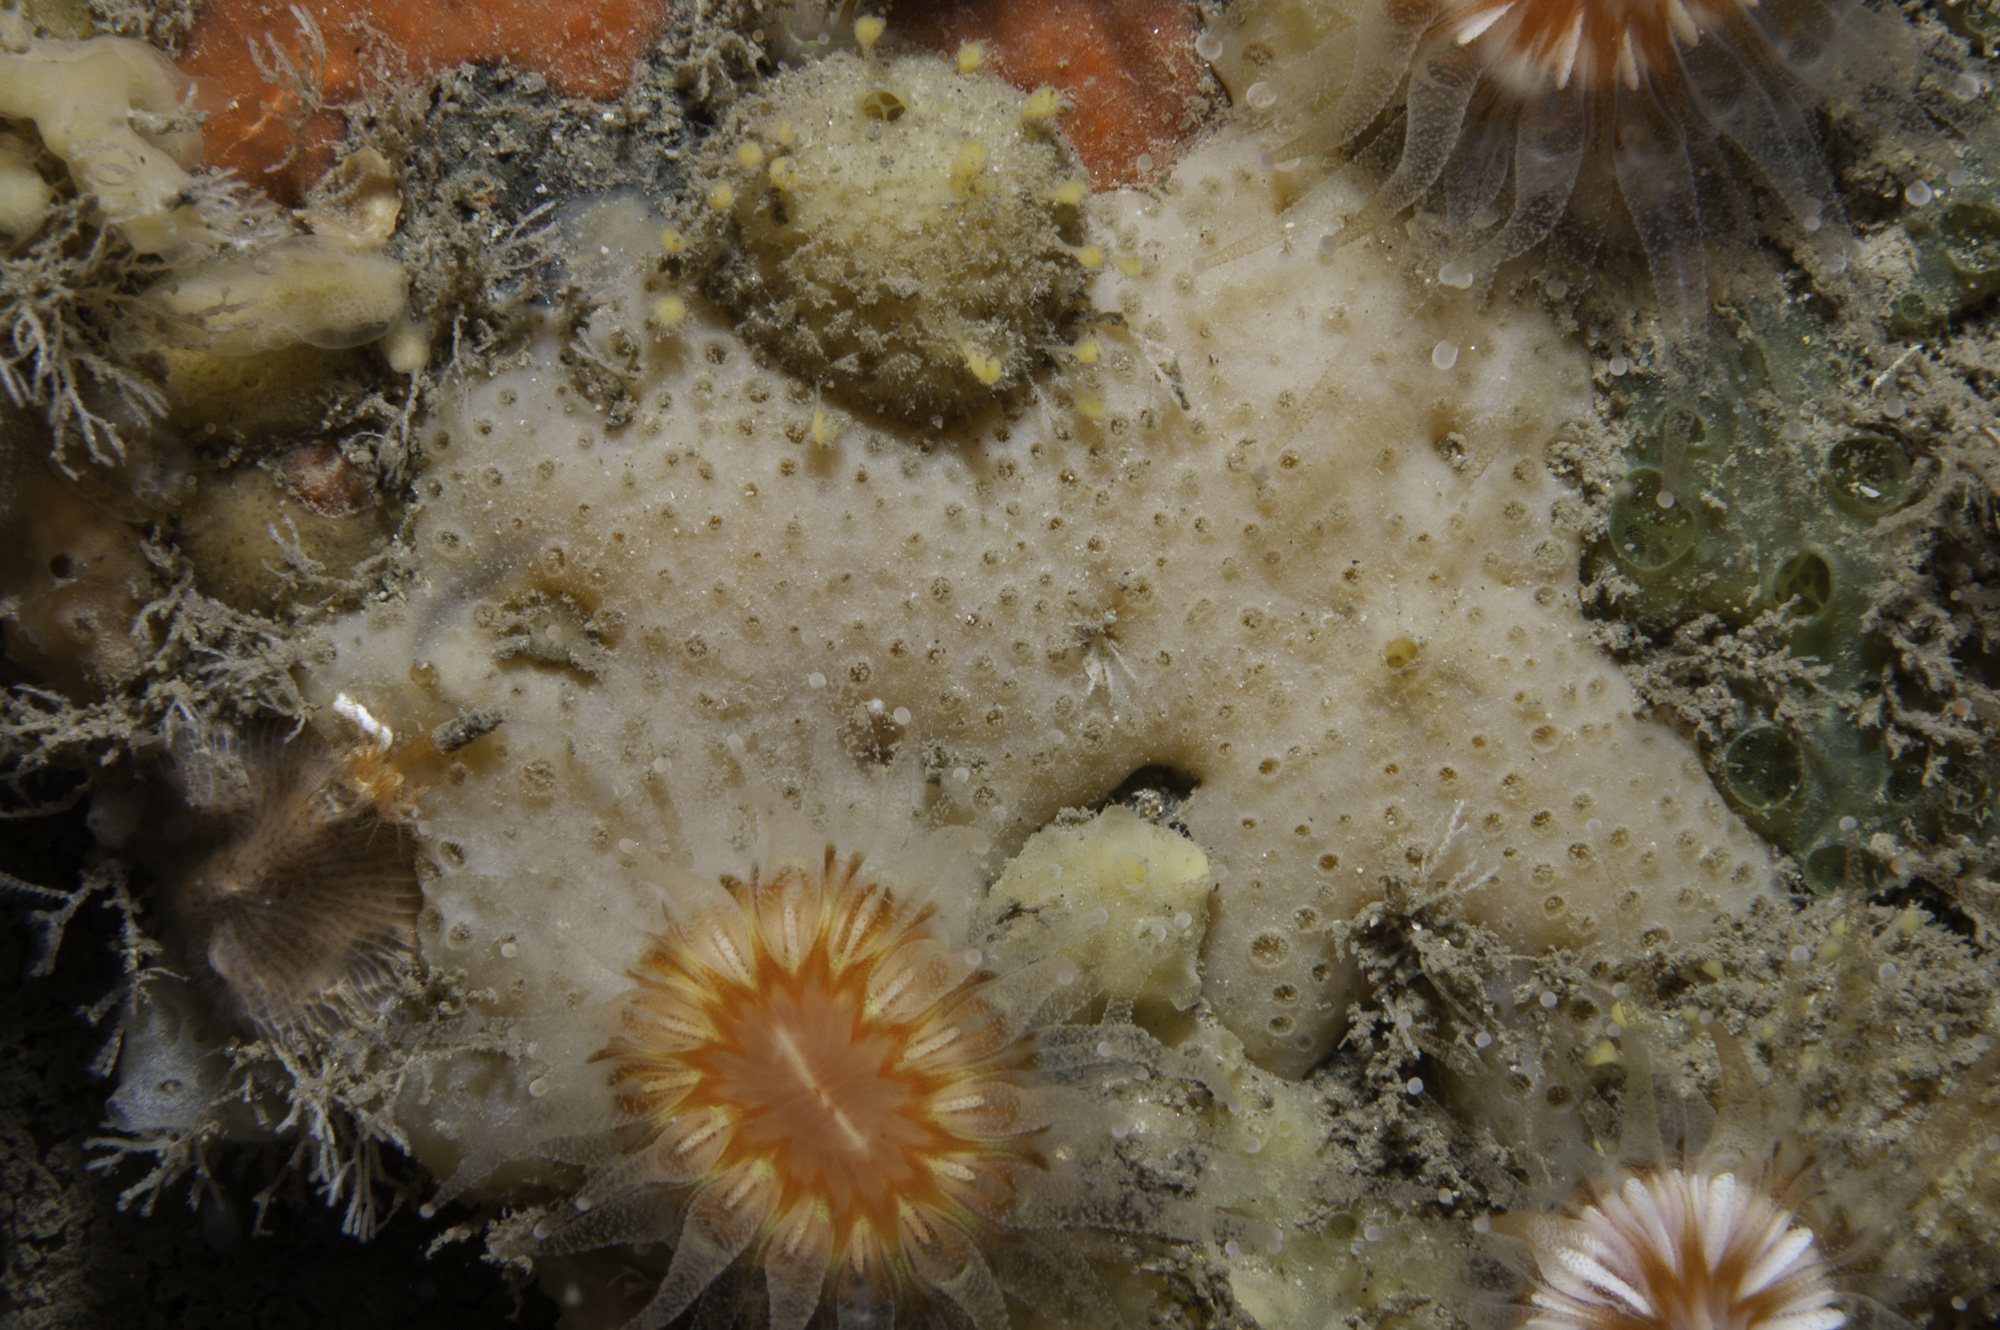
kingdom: Animalia
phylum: Porifera
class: Demospongiae
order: Poecilosclerida
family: Crellidae
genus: Crella
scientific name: Crella plana
